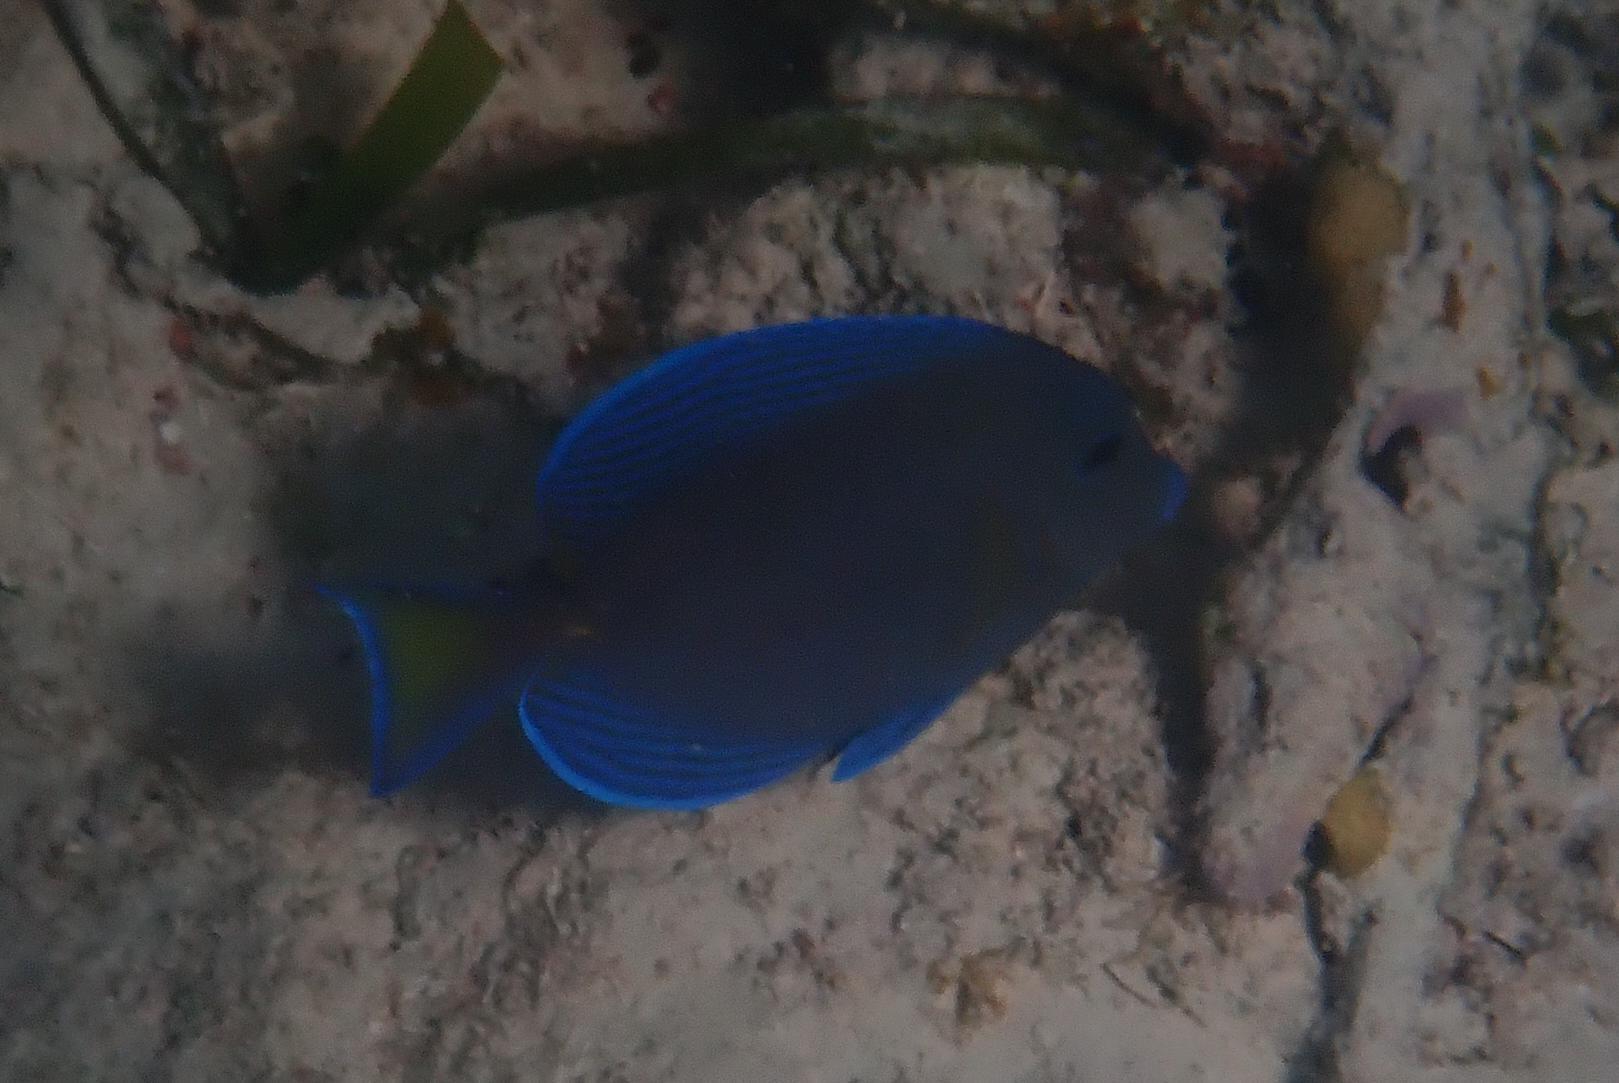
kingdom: Animalia
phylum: Chordata
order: Perciformes
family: Acanthuridae
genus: Acanthurus
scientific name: Acanthurus coeruleus
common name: Blue tang
